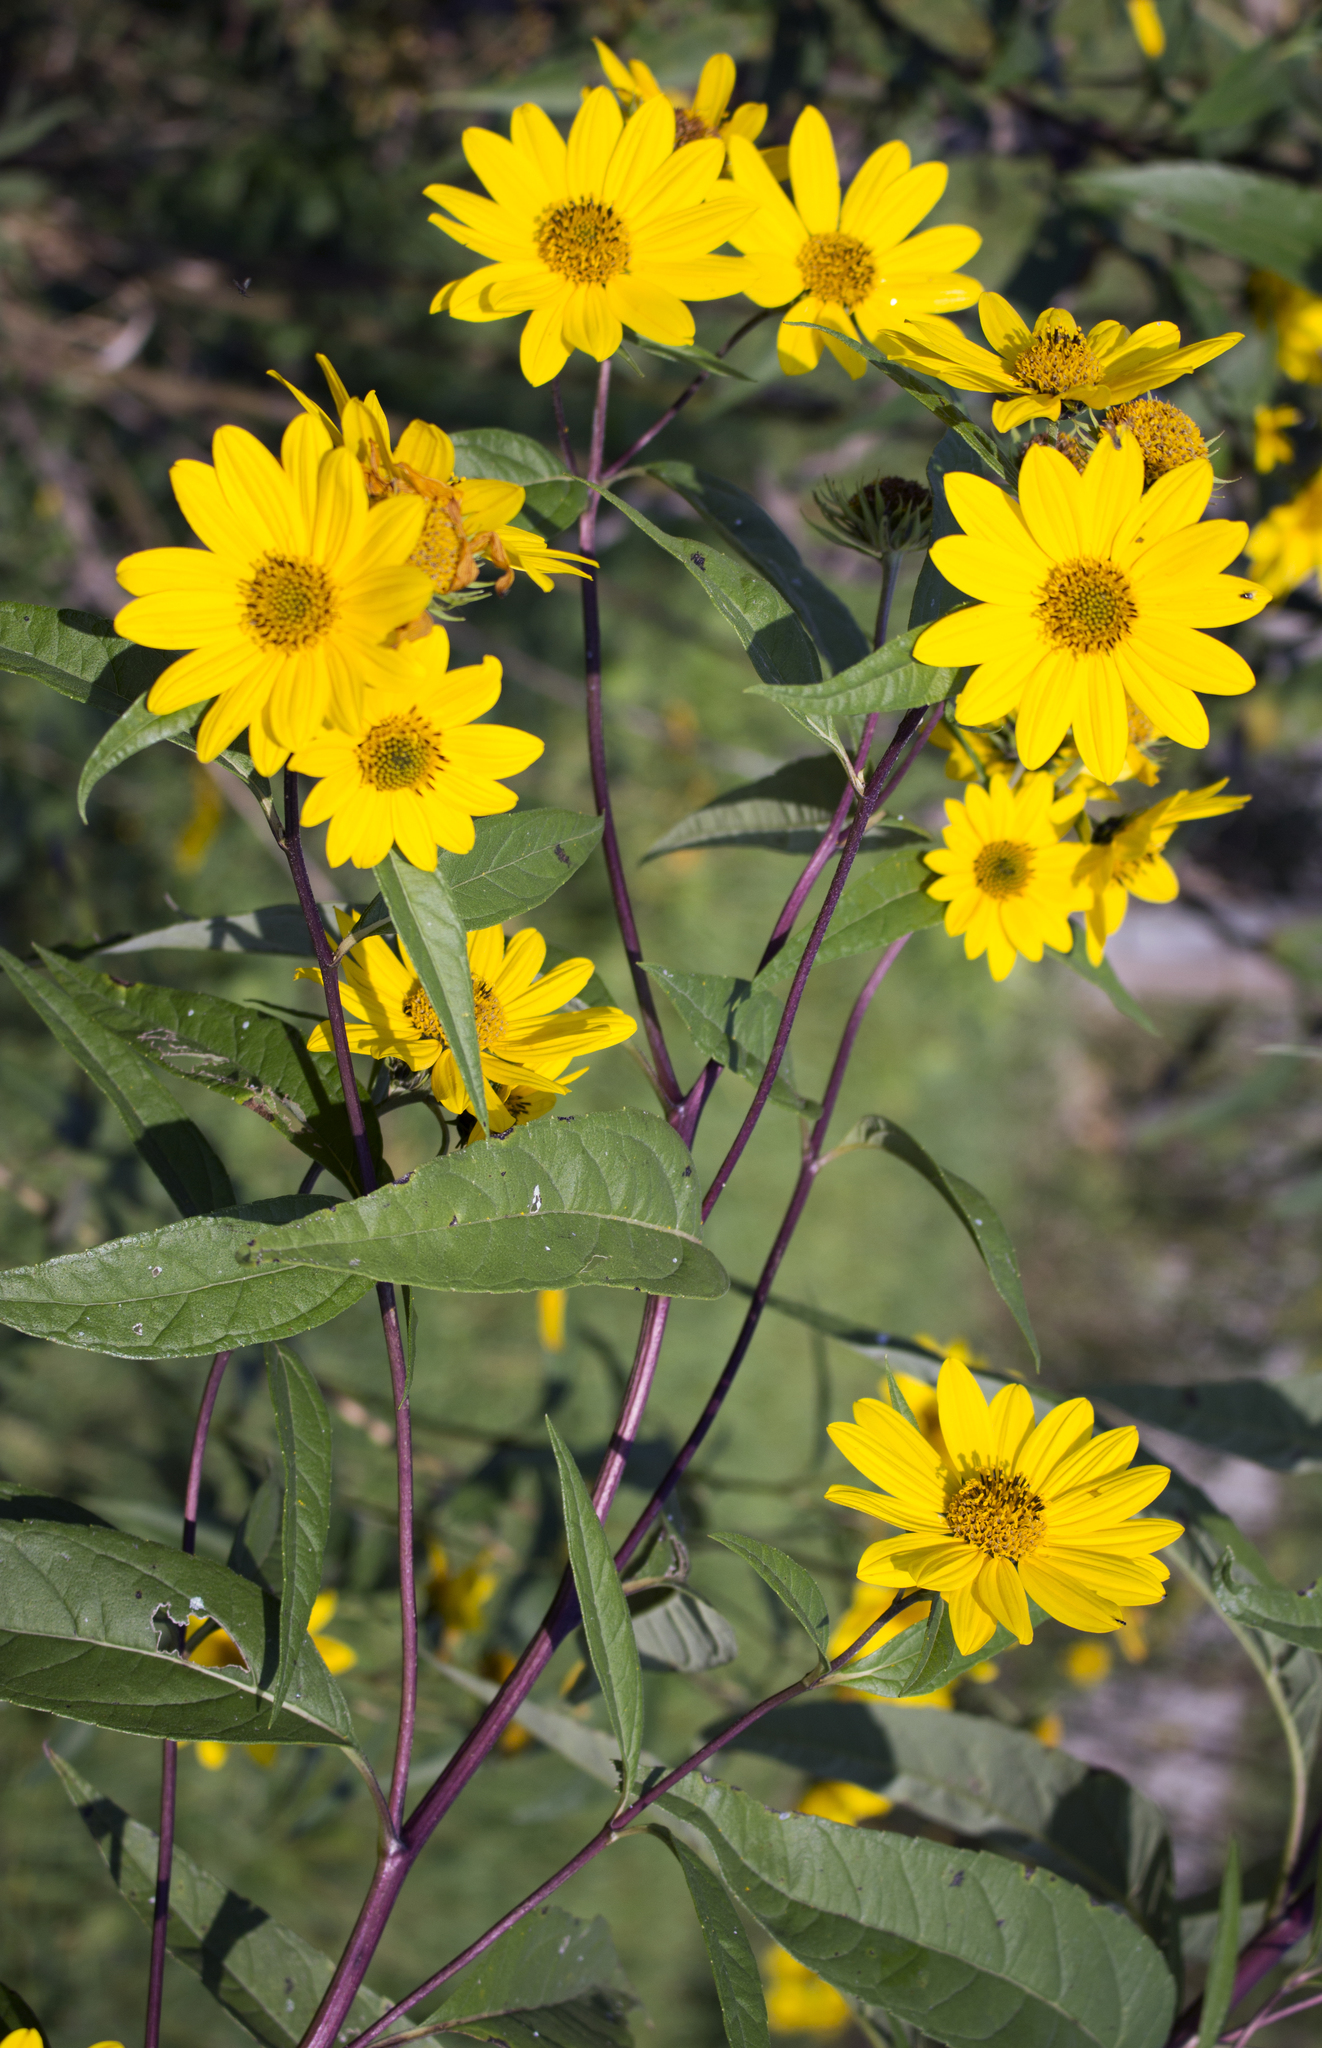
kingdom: Plantae
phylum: Tracheophyta
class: Magnoliopsida
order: Asterales
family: Asteraceae
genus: Helianthus
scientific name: Helianthus grosseserratus
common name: Sawtooth sunflower
